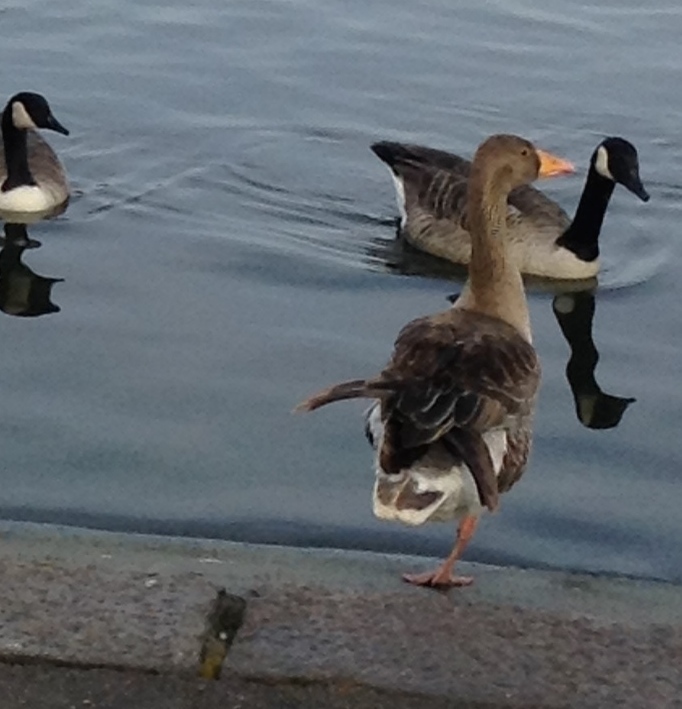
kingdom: Animalia
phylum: Chordata
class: Aves
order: Anseriformes
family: Anatidae
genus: Anser
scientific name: Anser anser
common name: Greylag goose
